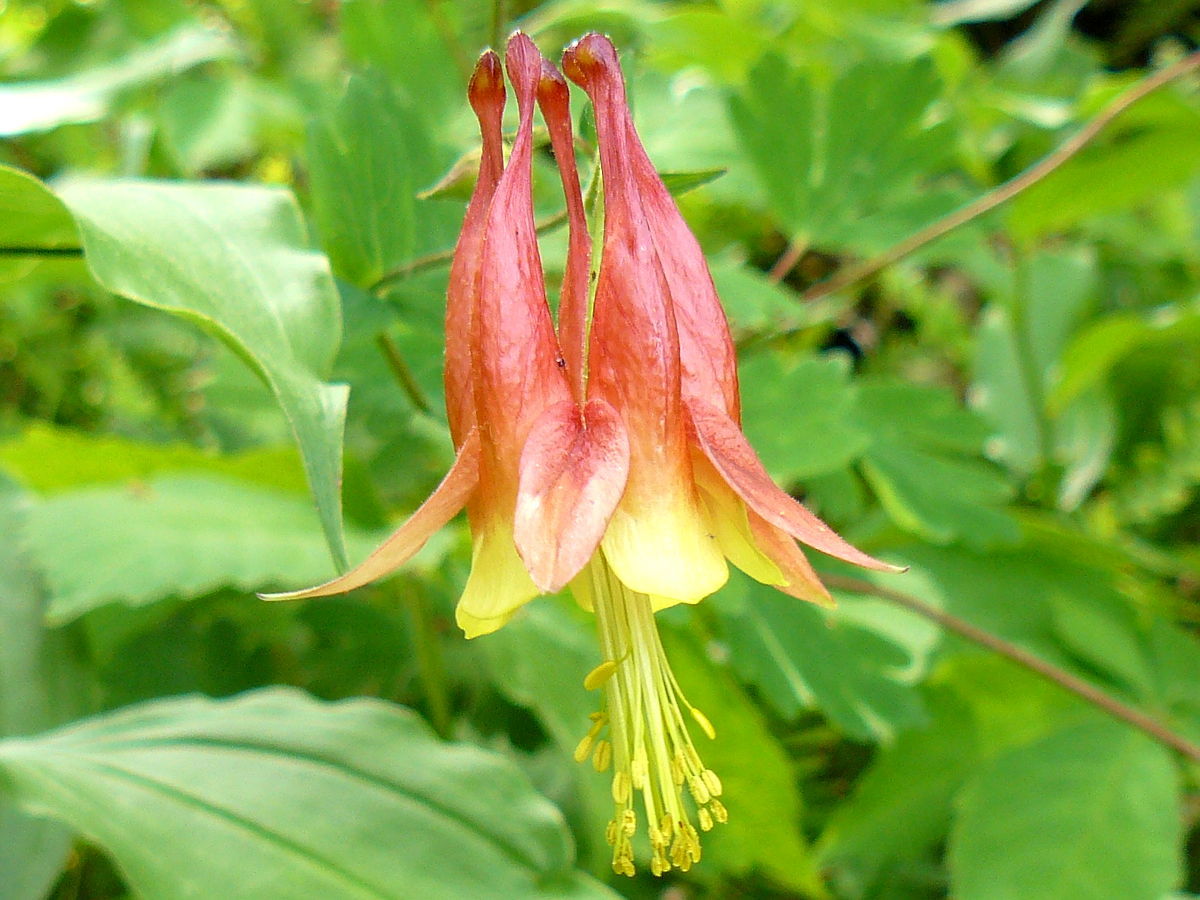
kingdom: Plantae
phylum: Tracheophyta
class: Magnoliopsida
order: Ranunculales
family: Ranunculaceae
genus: Aquilegia
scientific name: Aquilegia canadensis
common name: American columbine
